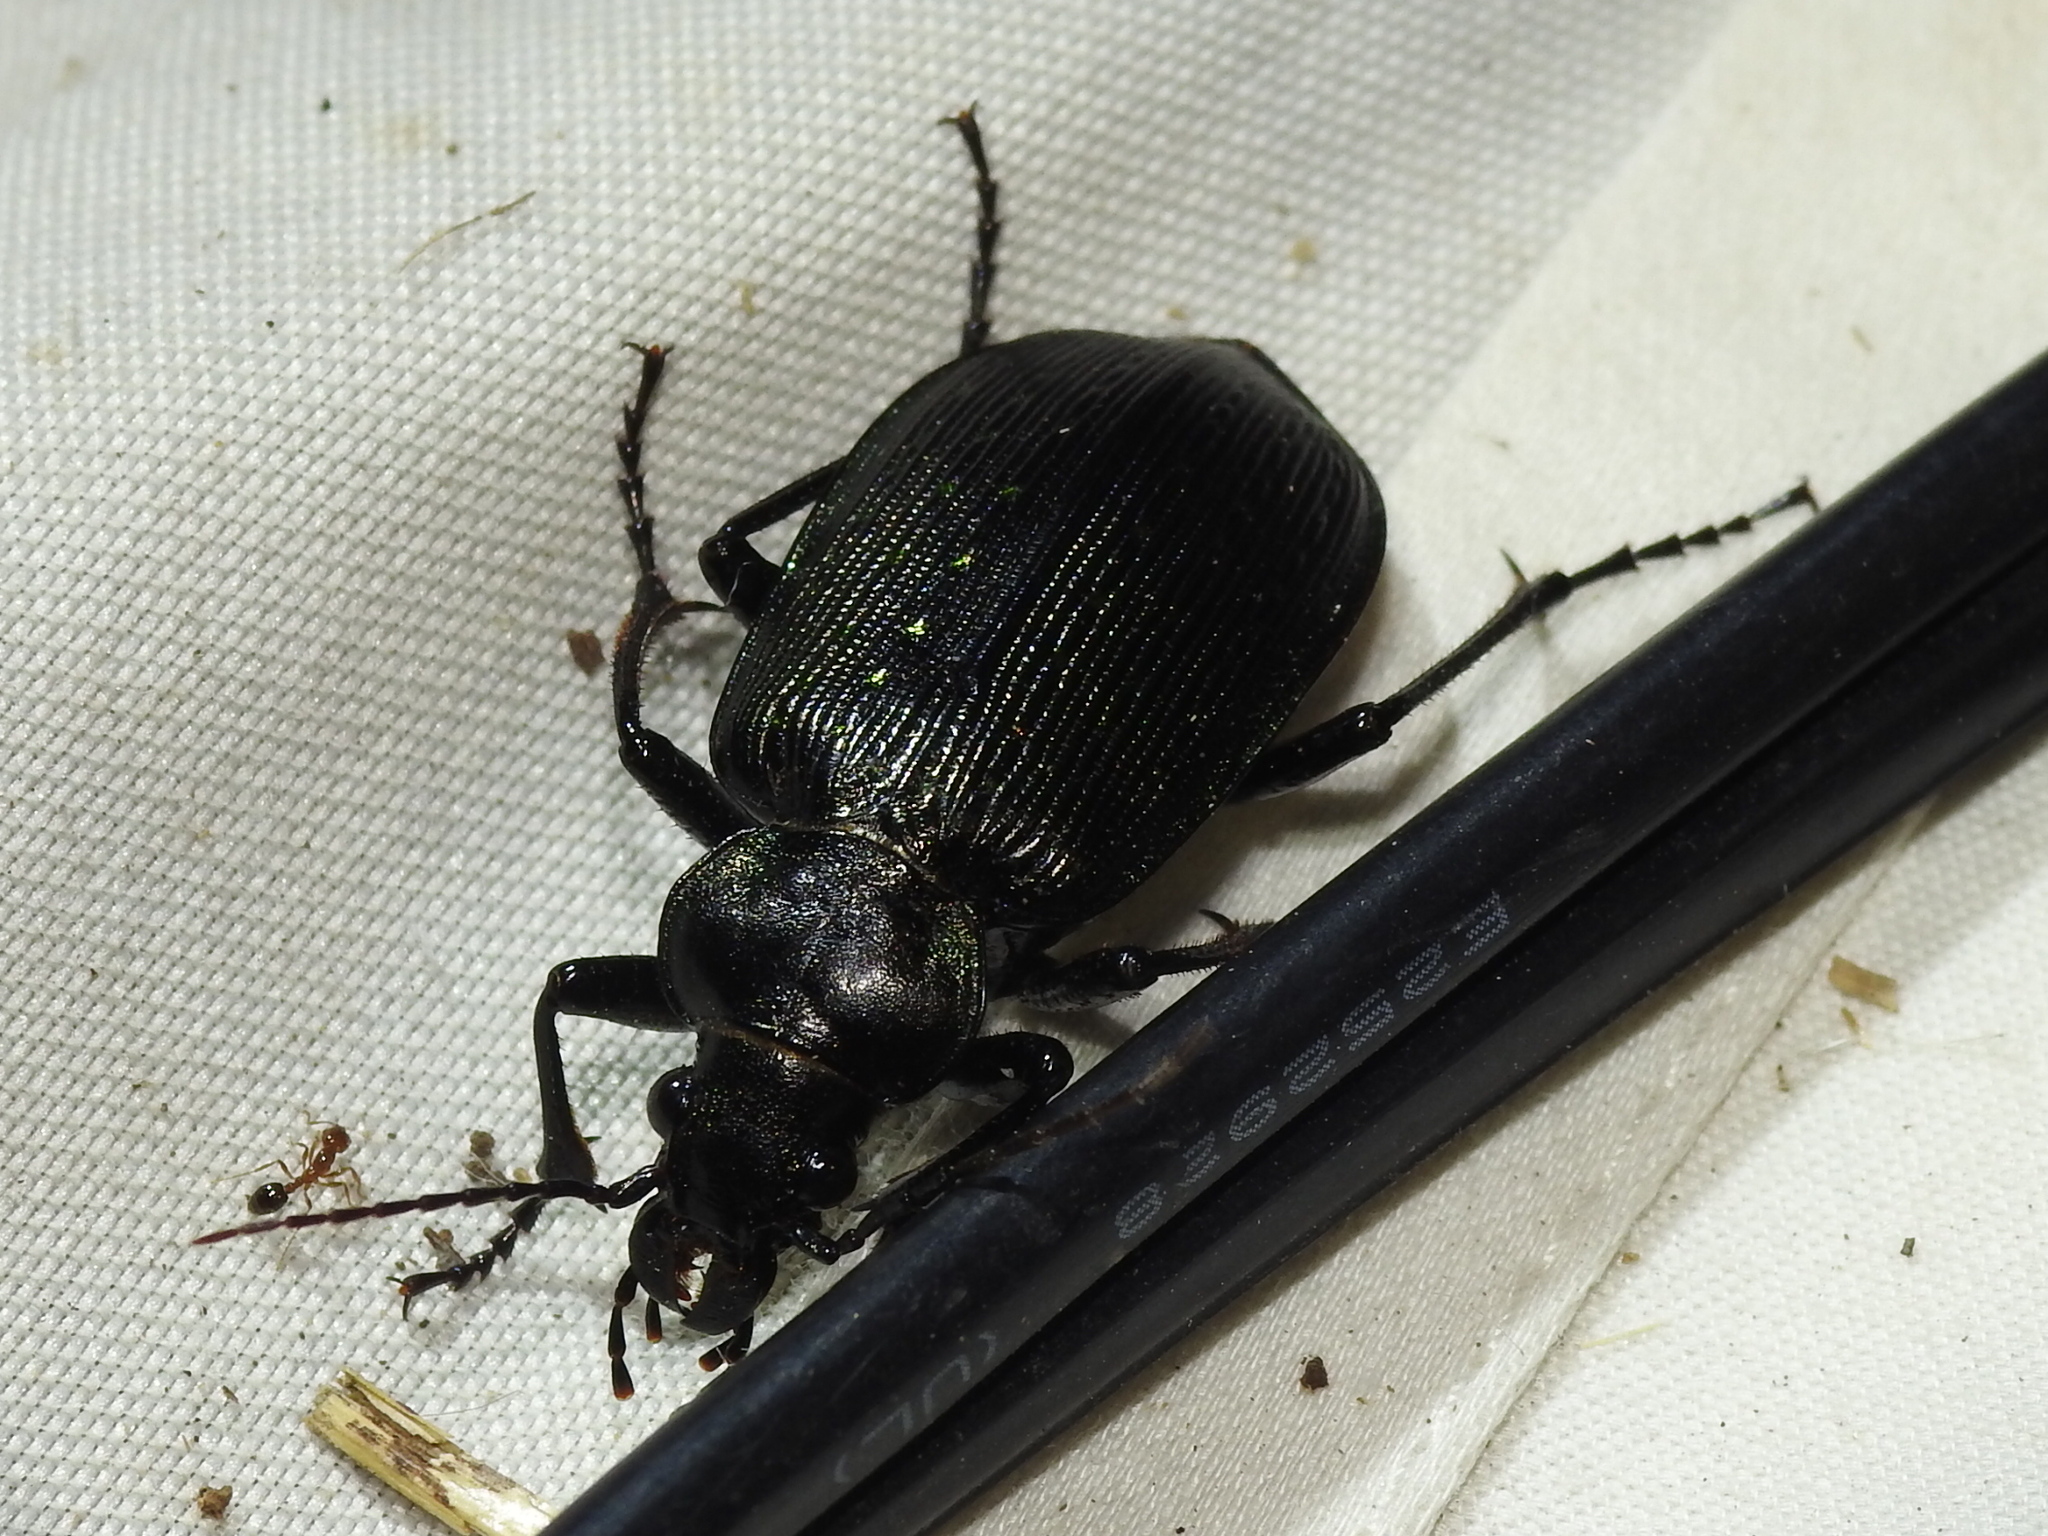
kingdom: Animalia
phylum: Arthropoda
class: Insecta
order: Coleoptera
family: Carabidae
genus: Calosoma
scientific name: Calosoma sayi
